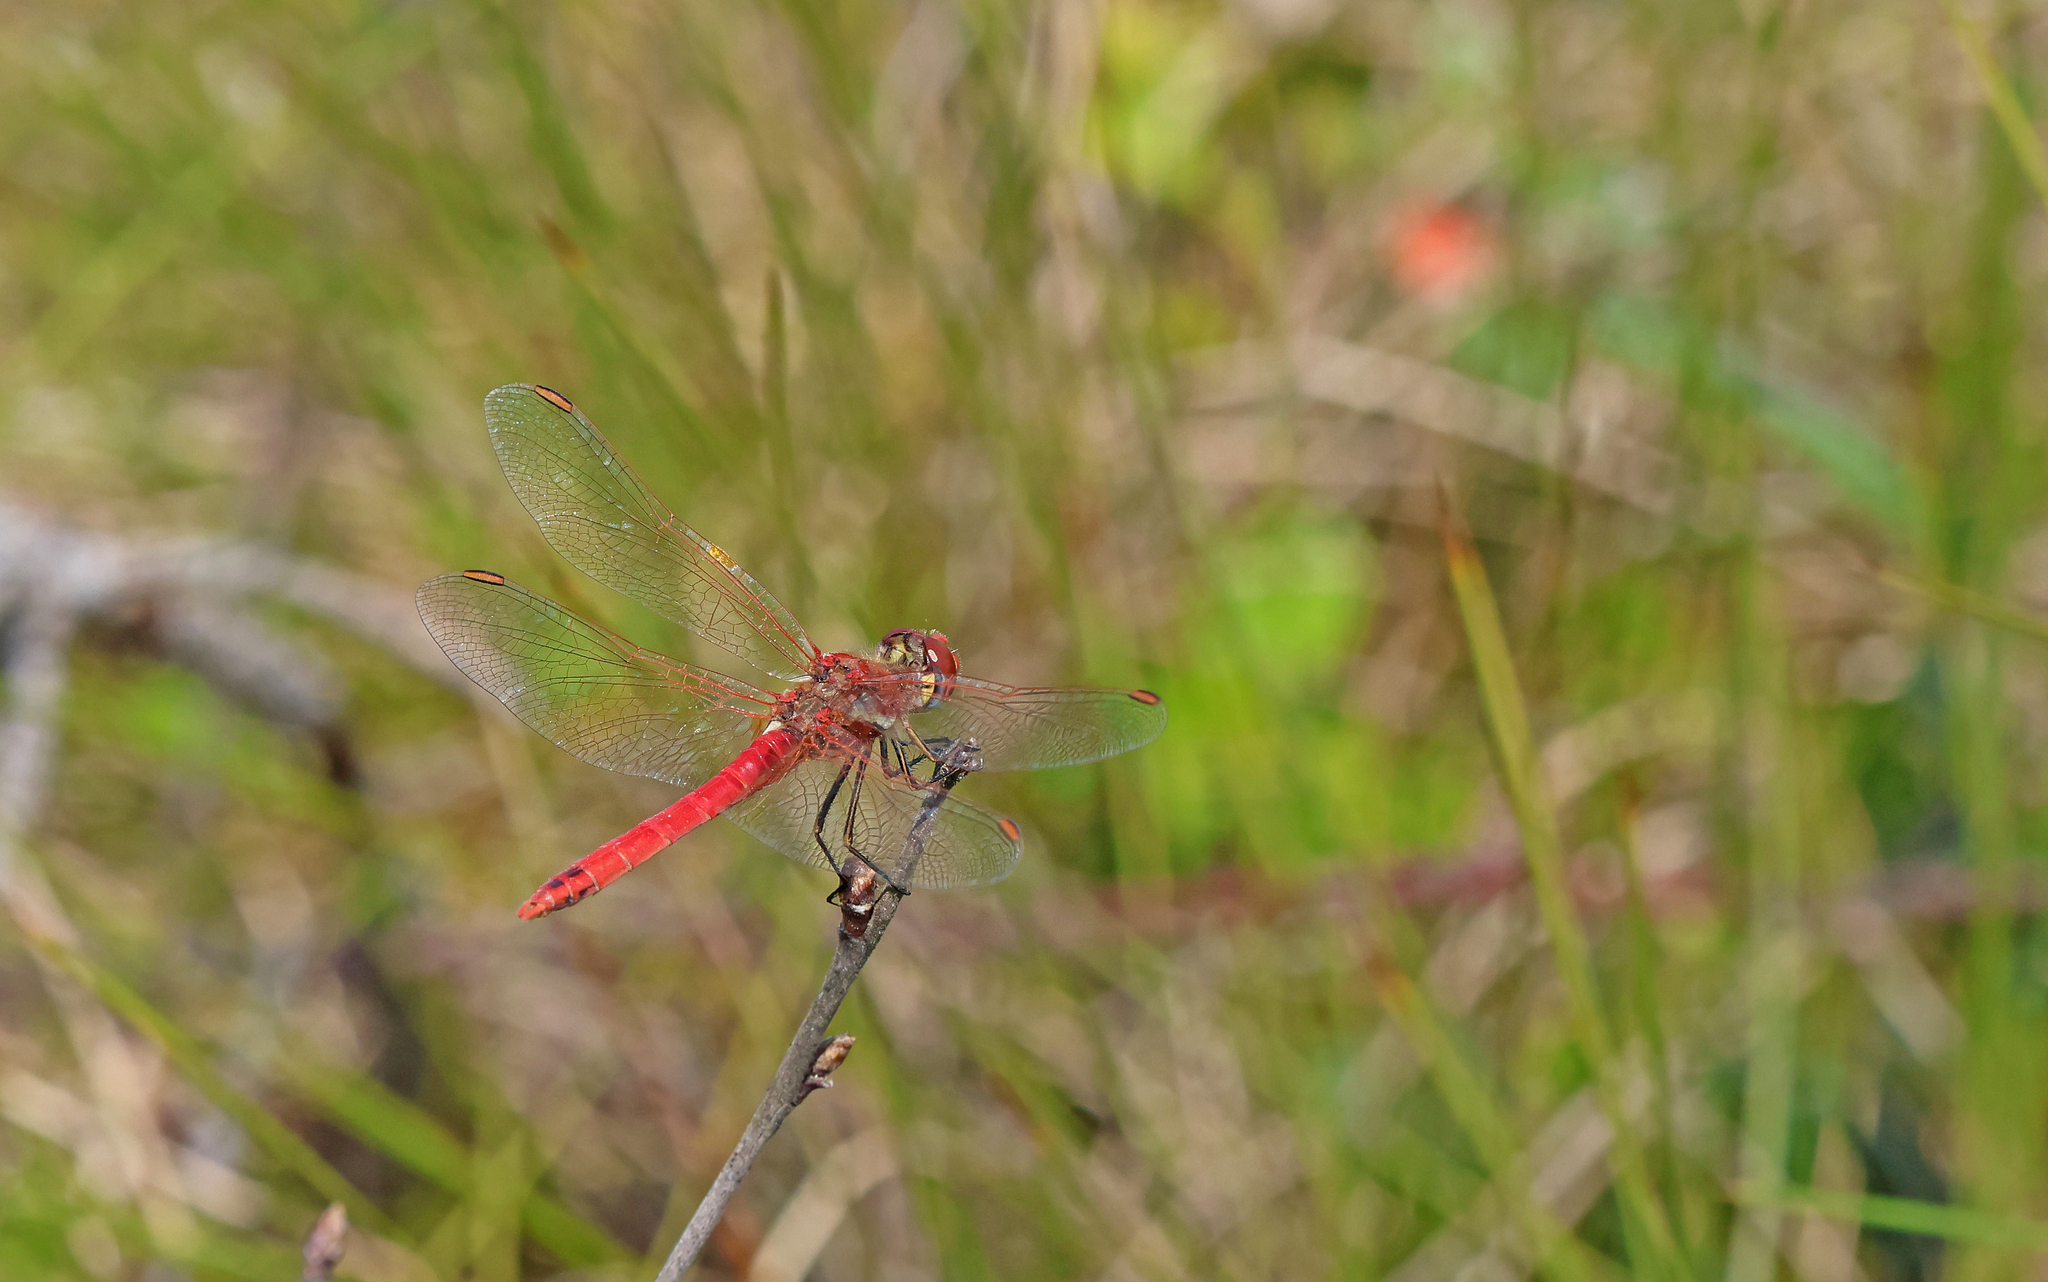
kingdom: Animalia
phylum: Arthropoda
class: Insecta
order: Odonata
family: Libellulidae
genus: Sympetrum
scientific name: Sympetrum fonscolombii
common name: Red-veined darter
